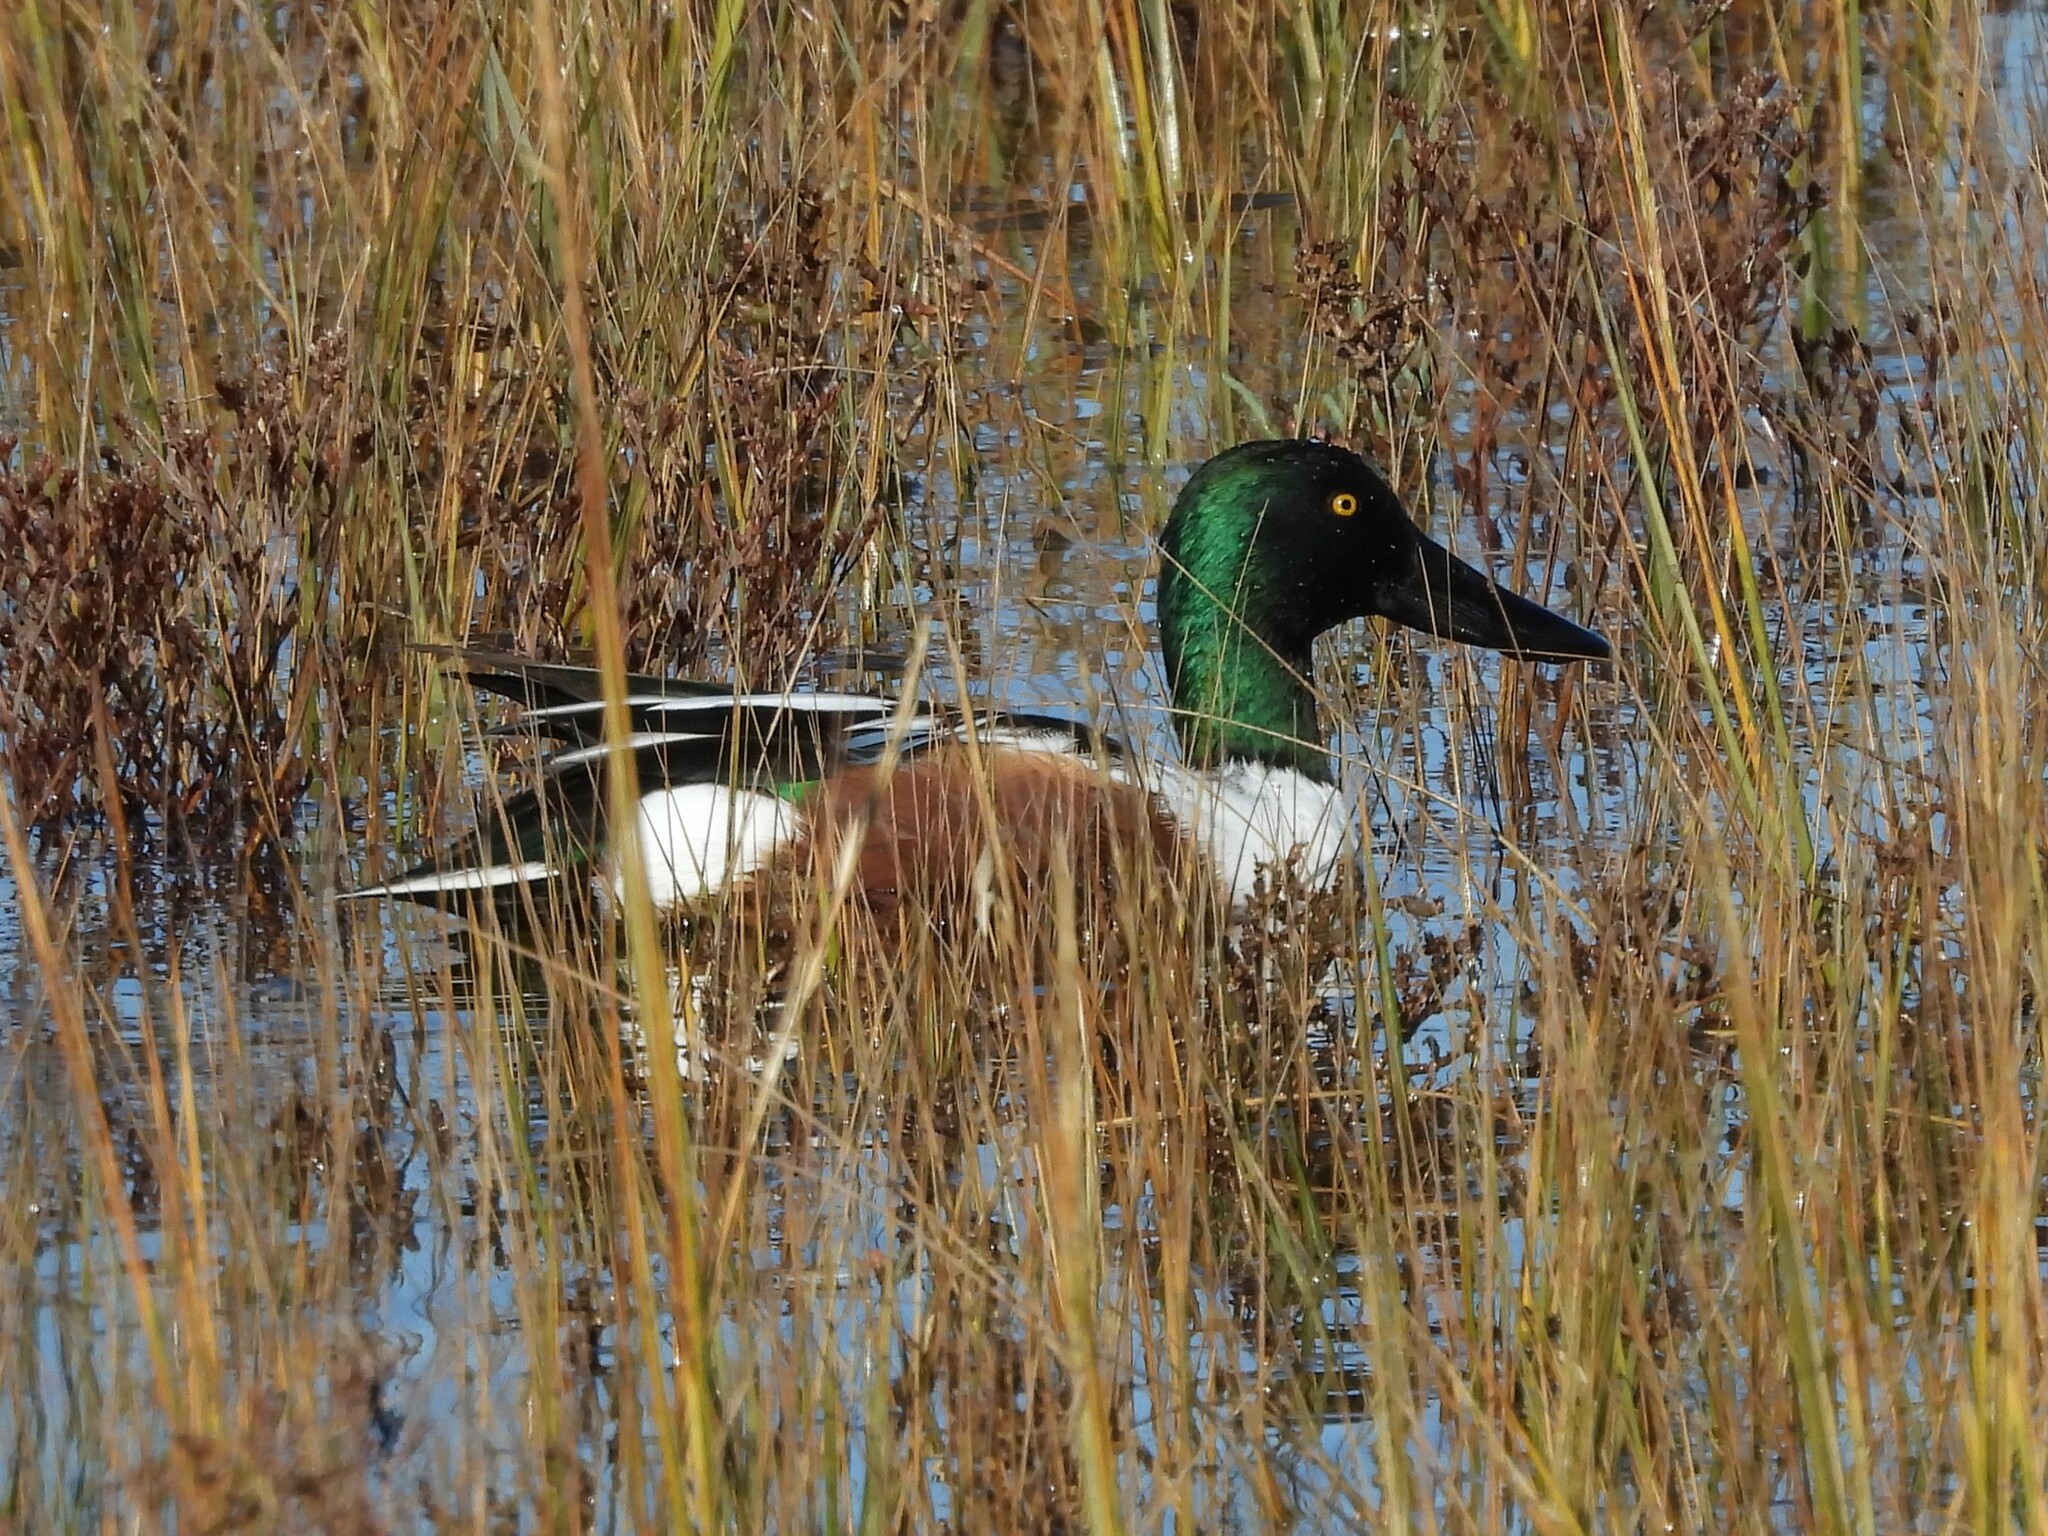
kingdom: Animalia
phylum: Chordata
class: Aves
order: Anseriformes
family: Anatidae
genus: Spatula
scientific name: Spatula clypeata
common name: Northern shoveler
